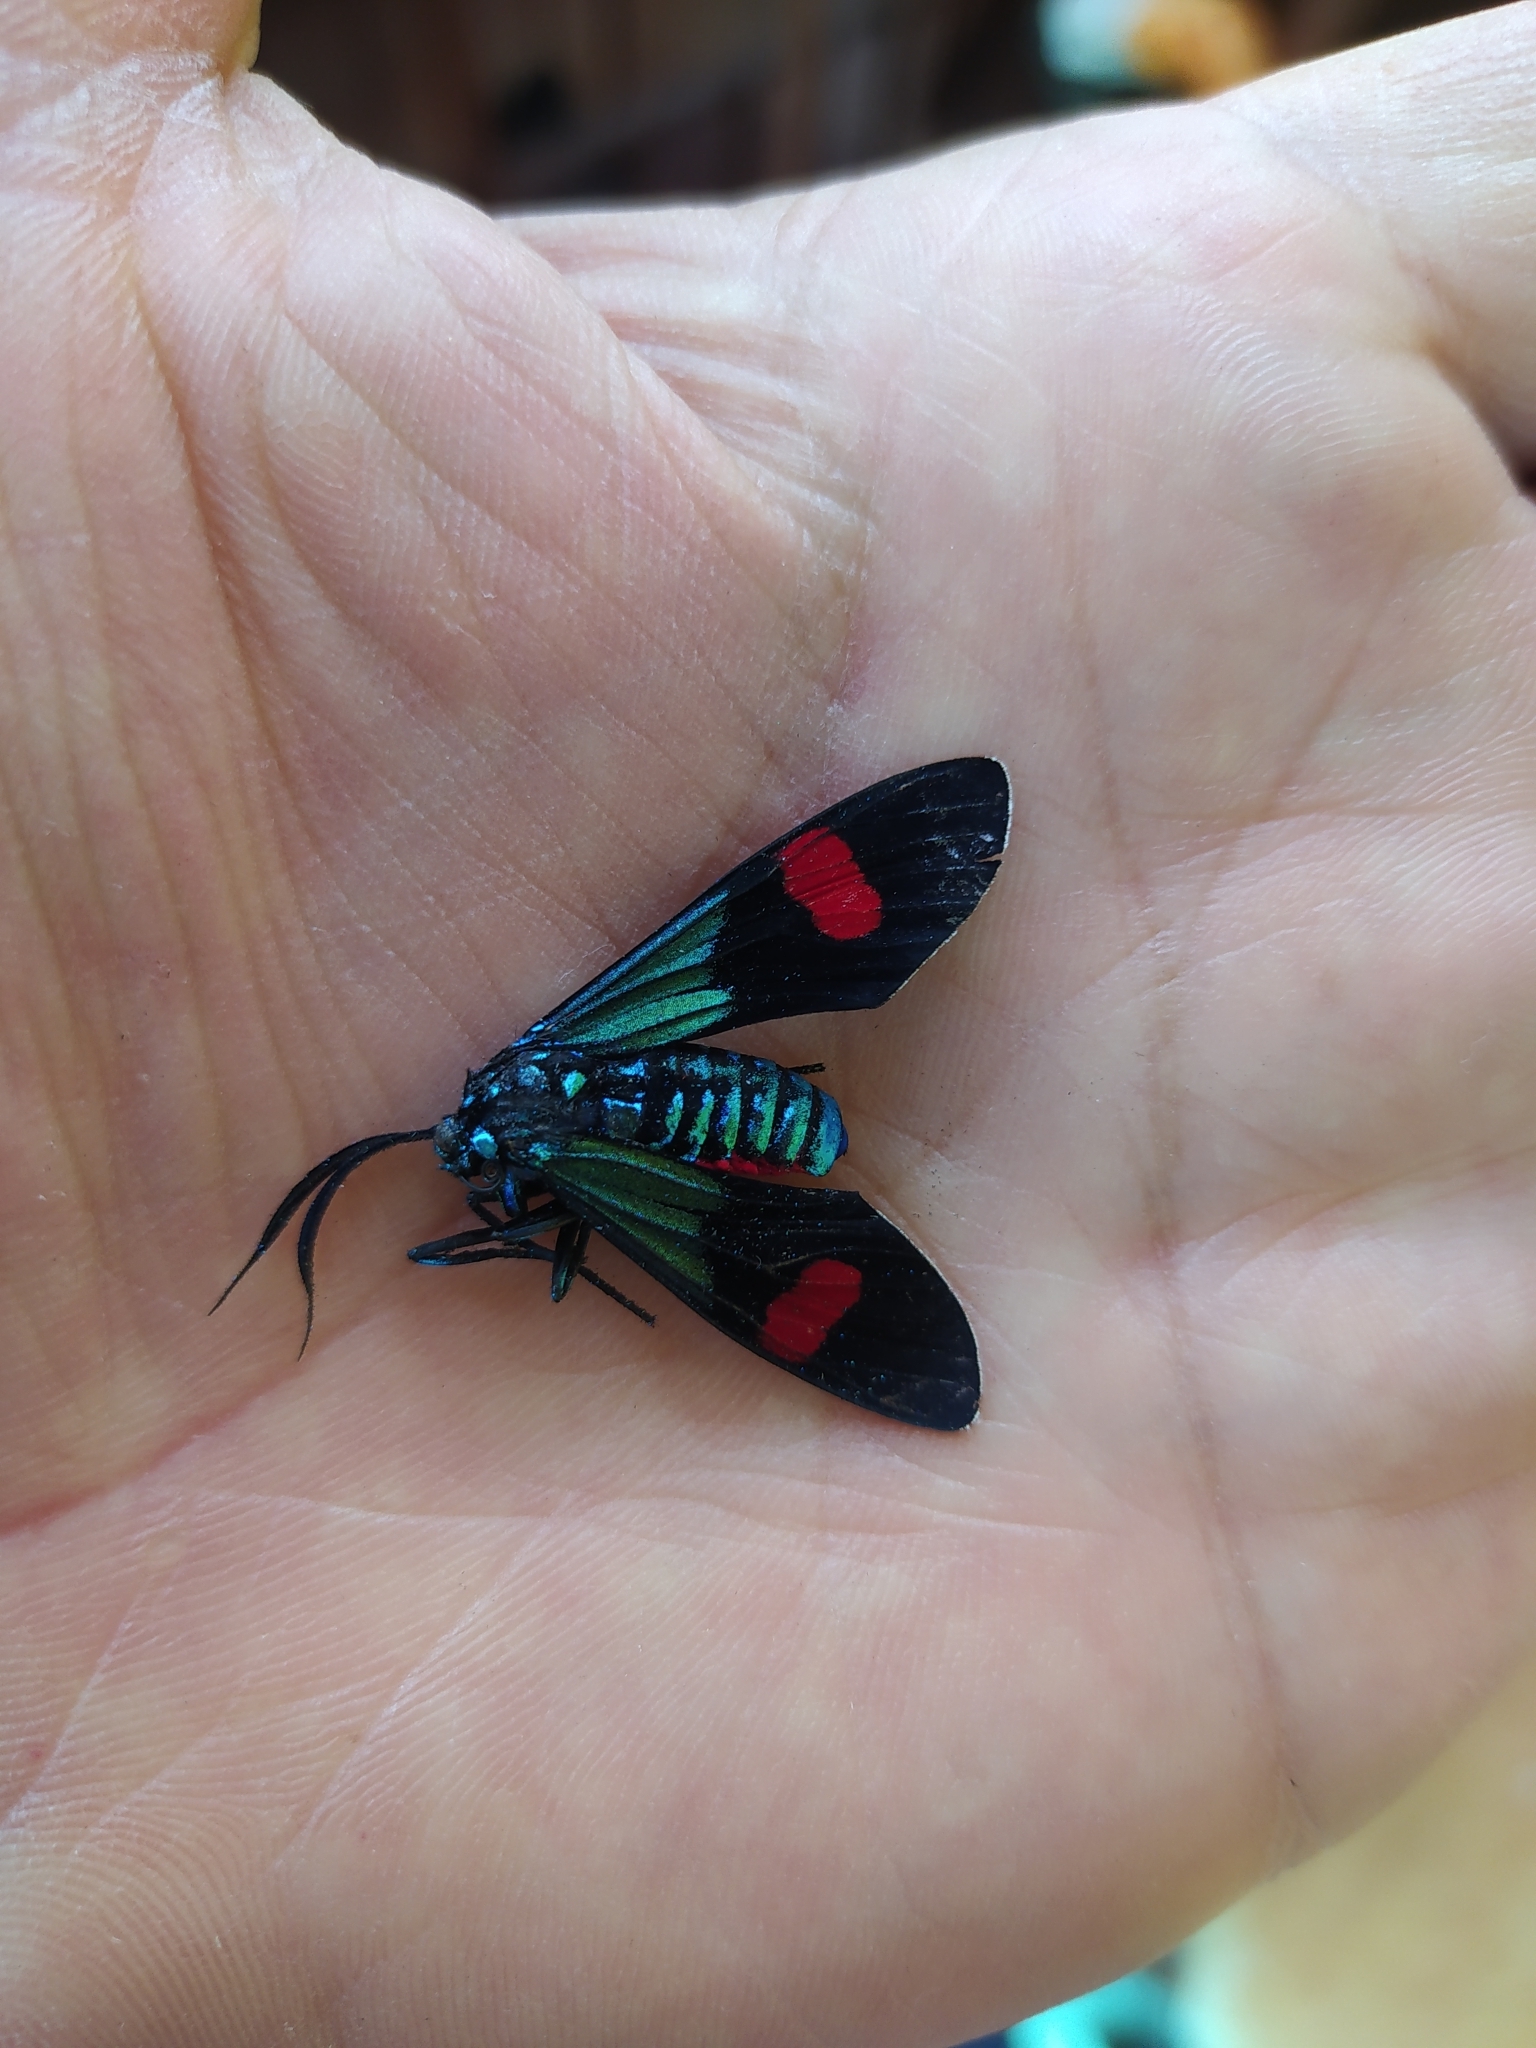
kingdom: Animalia
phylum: Arthropoda
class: Insecta
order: Lepidoptera
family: Erebidae
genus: Belemnia
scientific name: Belemnia inaurata
